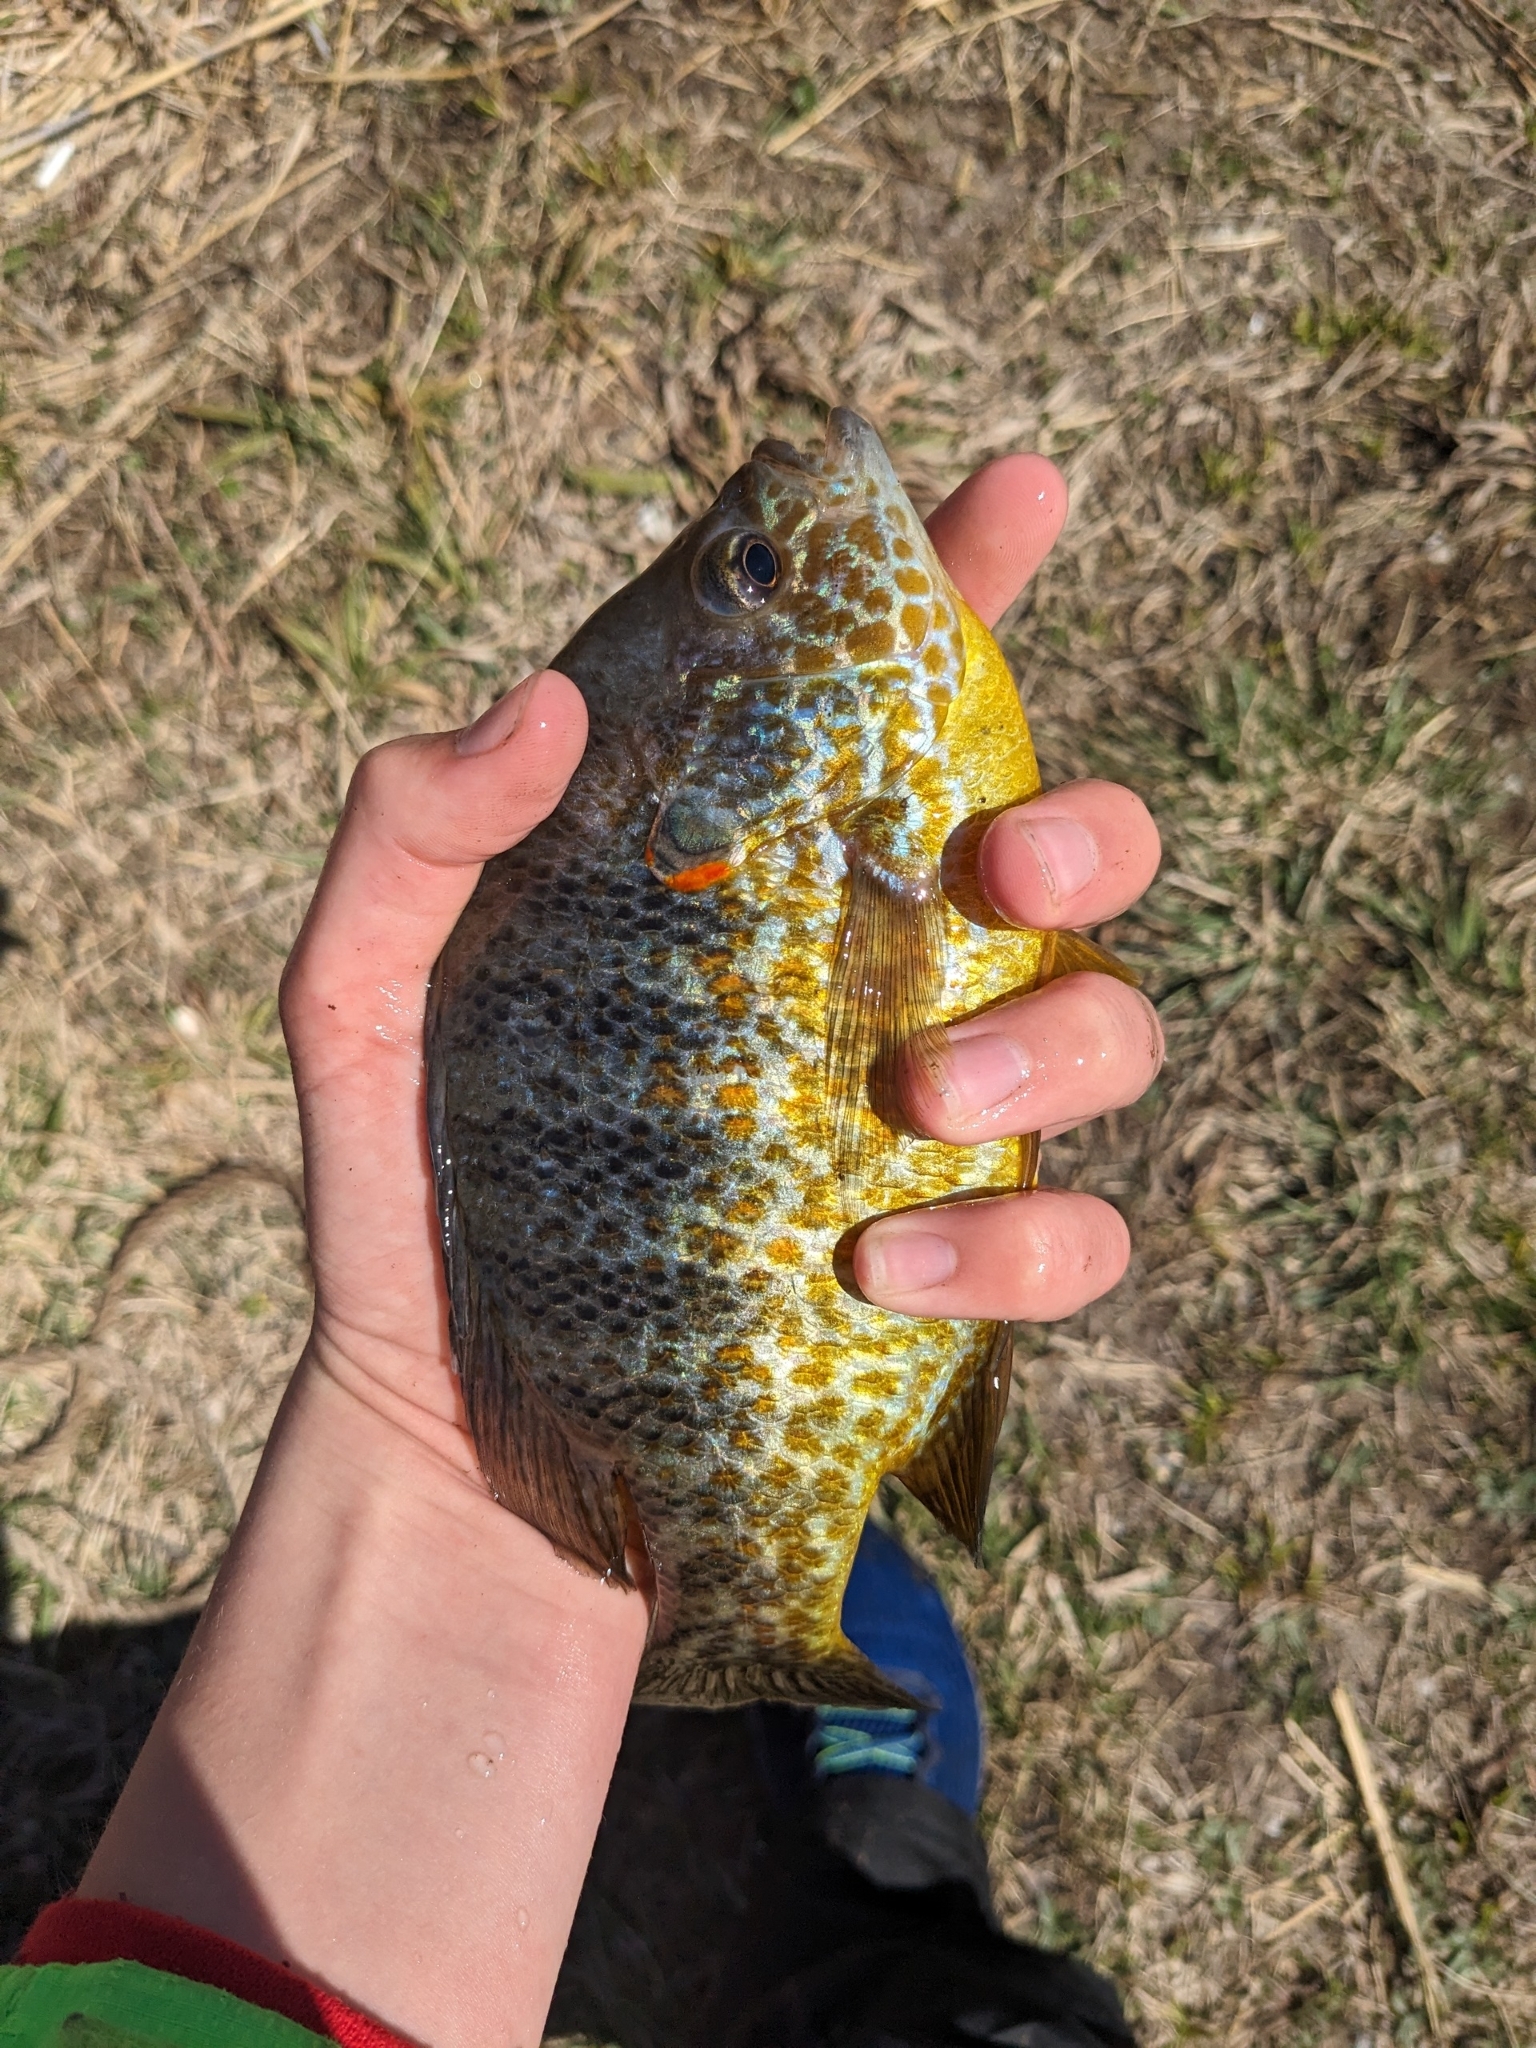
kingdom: Animalia
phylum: Chordata
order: Perciformes
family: Centrarchidae
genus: Lepomis
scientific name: Lepomis gibbosus
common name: Pumpkinseed
